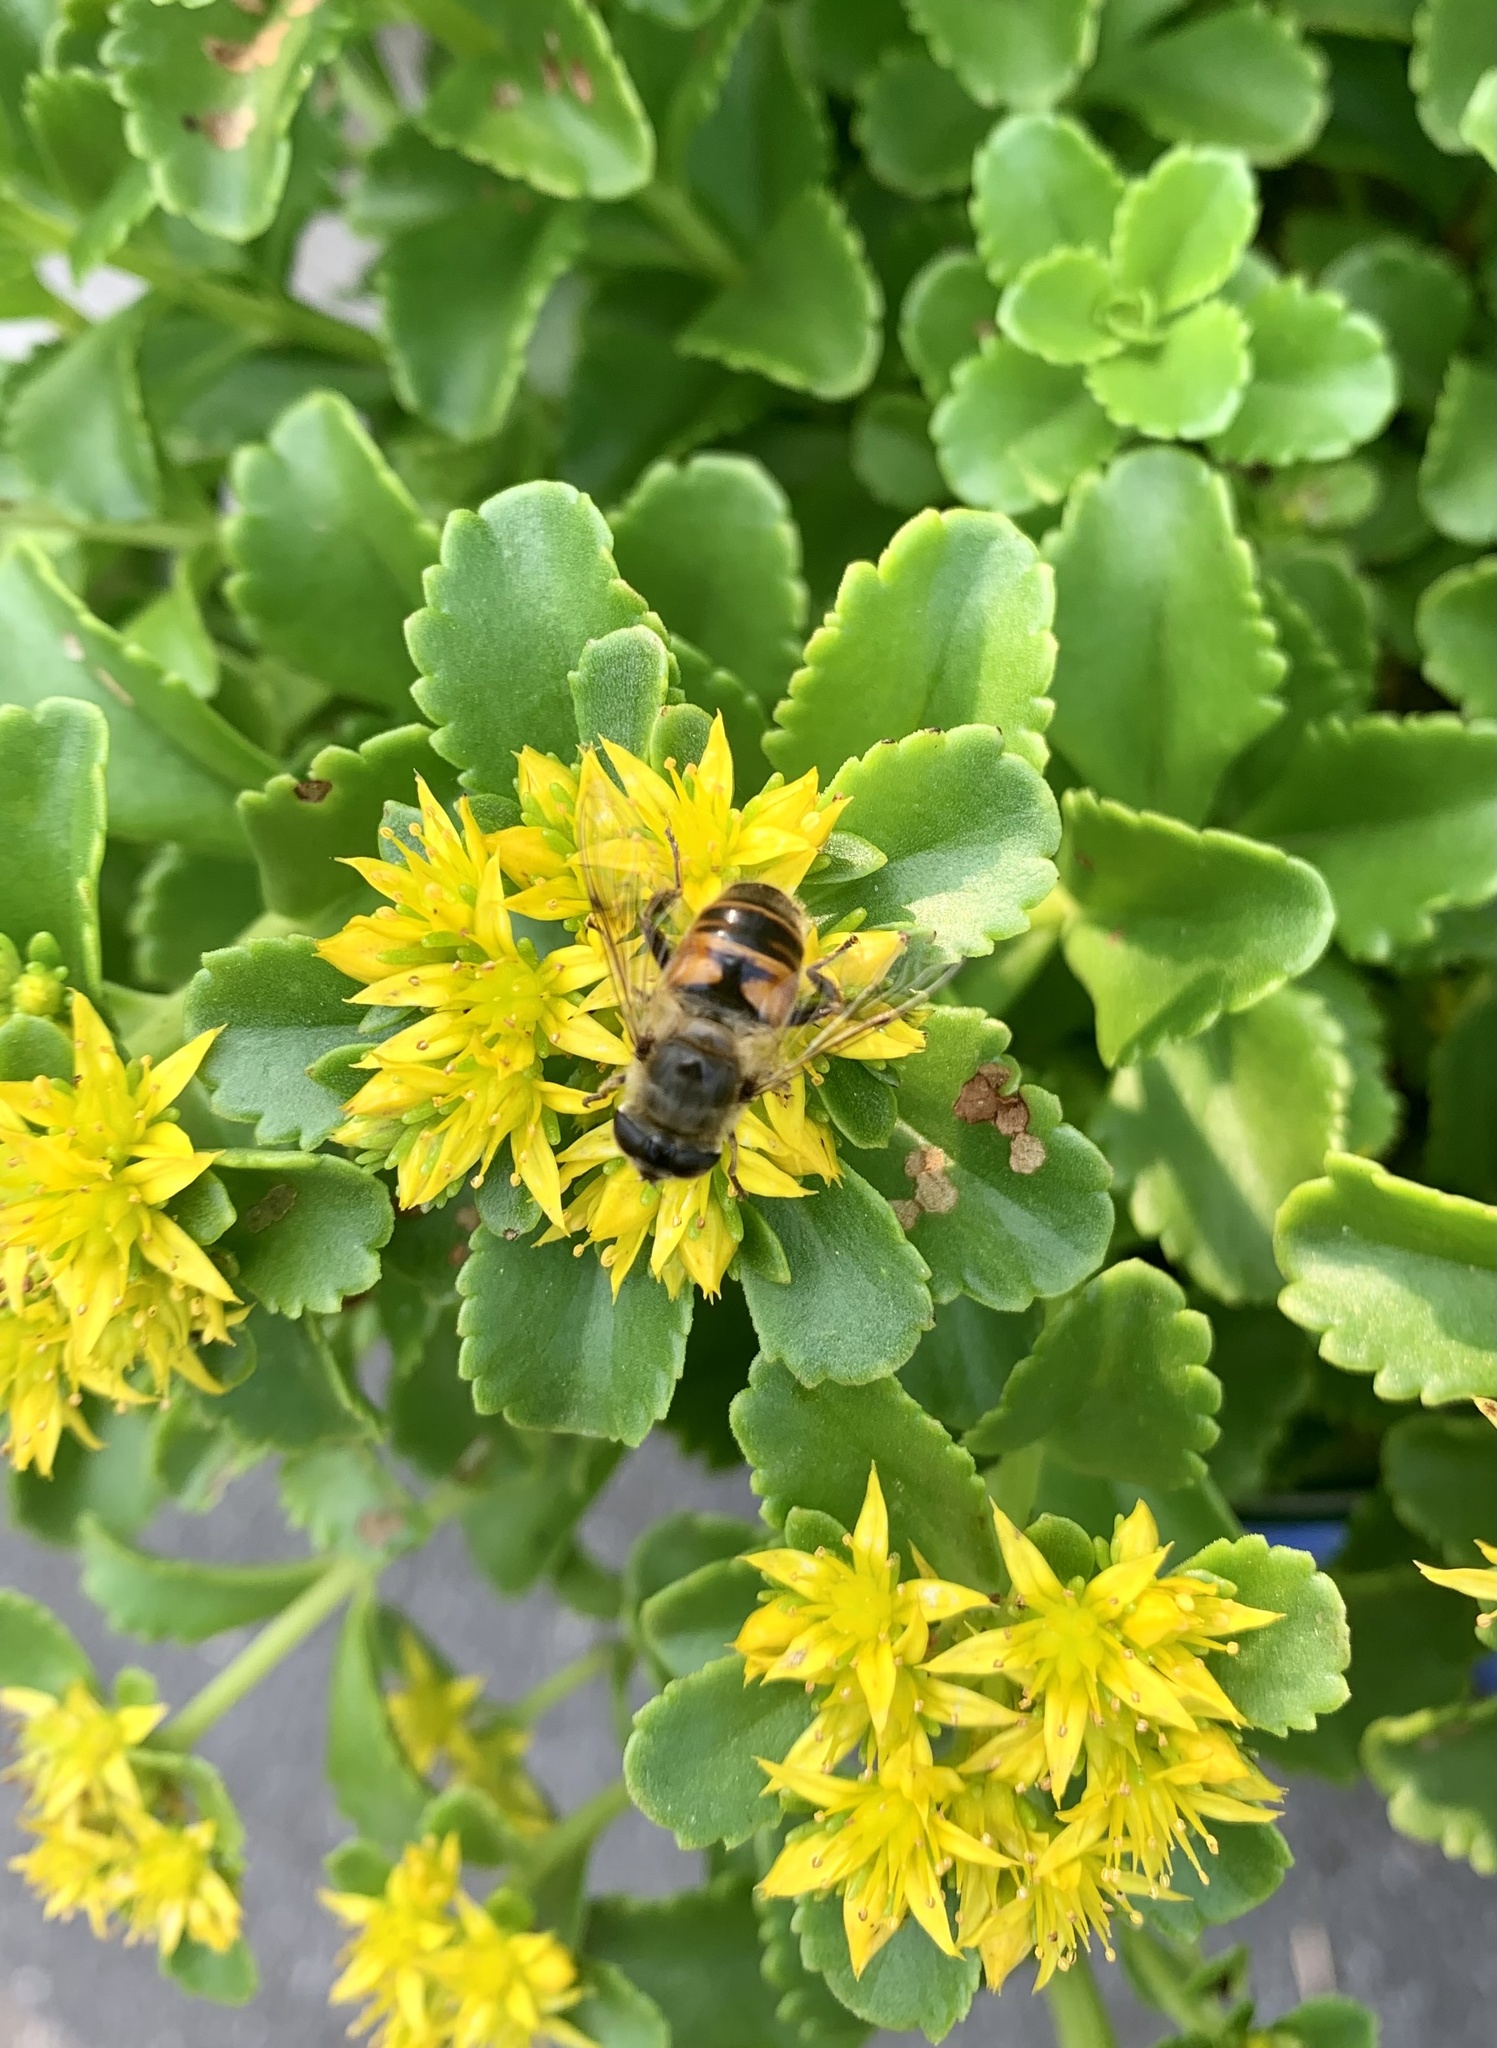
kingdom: Animalia
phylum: Arthropoda
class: Insecta
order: Diptera
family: Syrphidae
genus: Eristalis
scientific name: Eristalis tenax
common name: Drone fly
